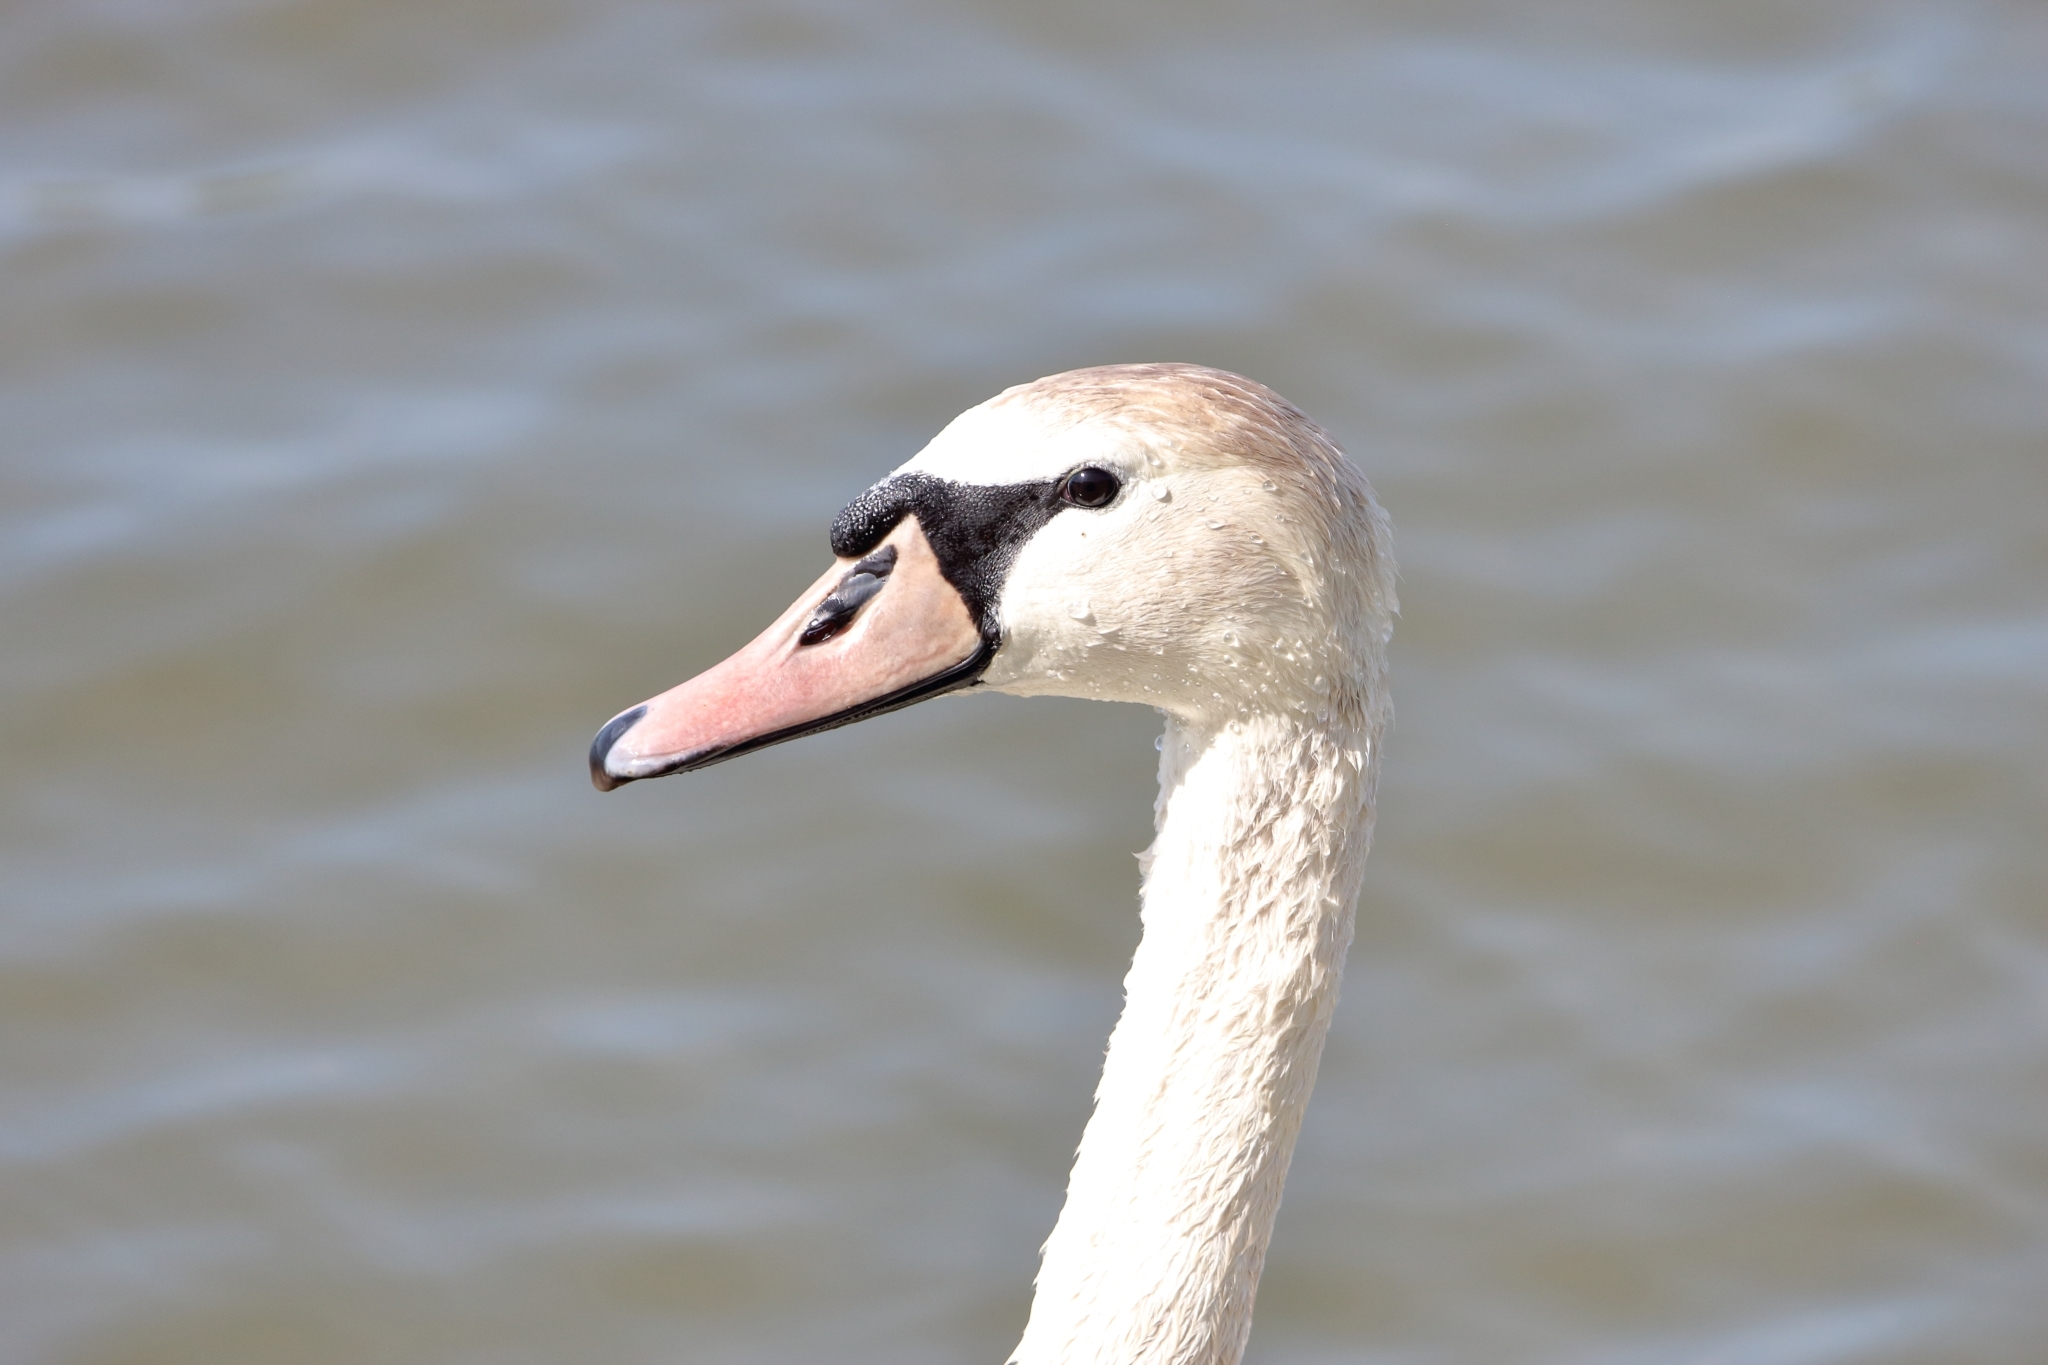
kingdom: Animalia
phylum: Chordata
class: Aves
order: Anseriformes
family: Anatidae
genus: Cygnus
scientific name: Cygnus olor
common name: Mute swan
